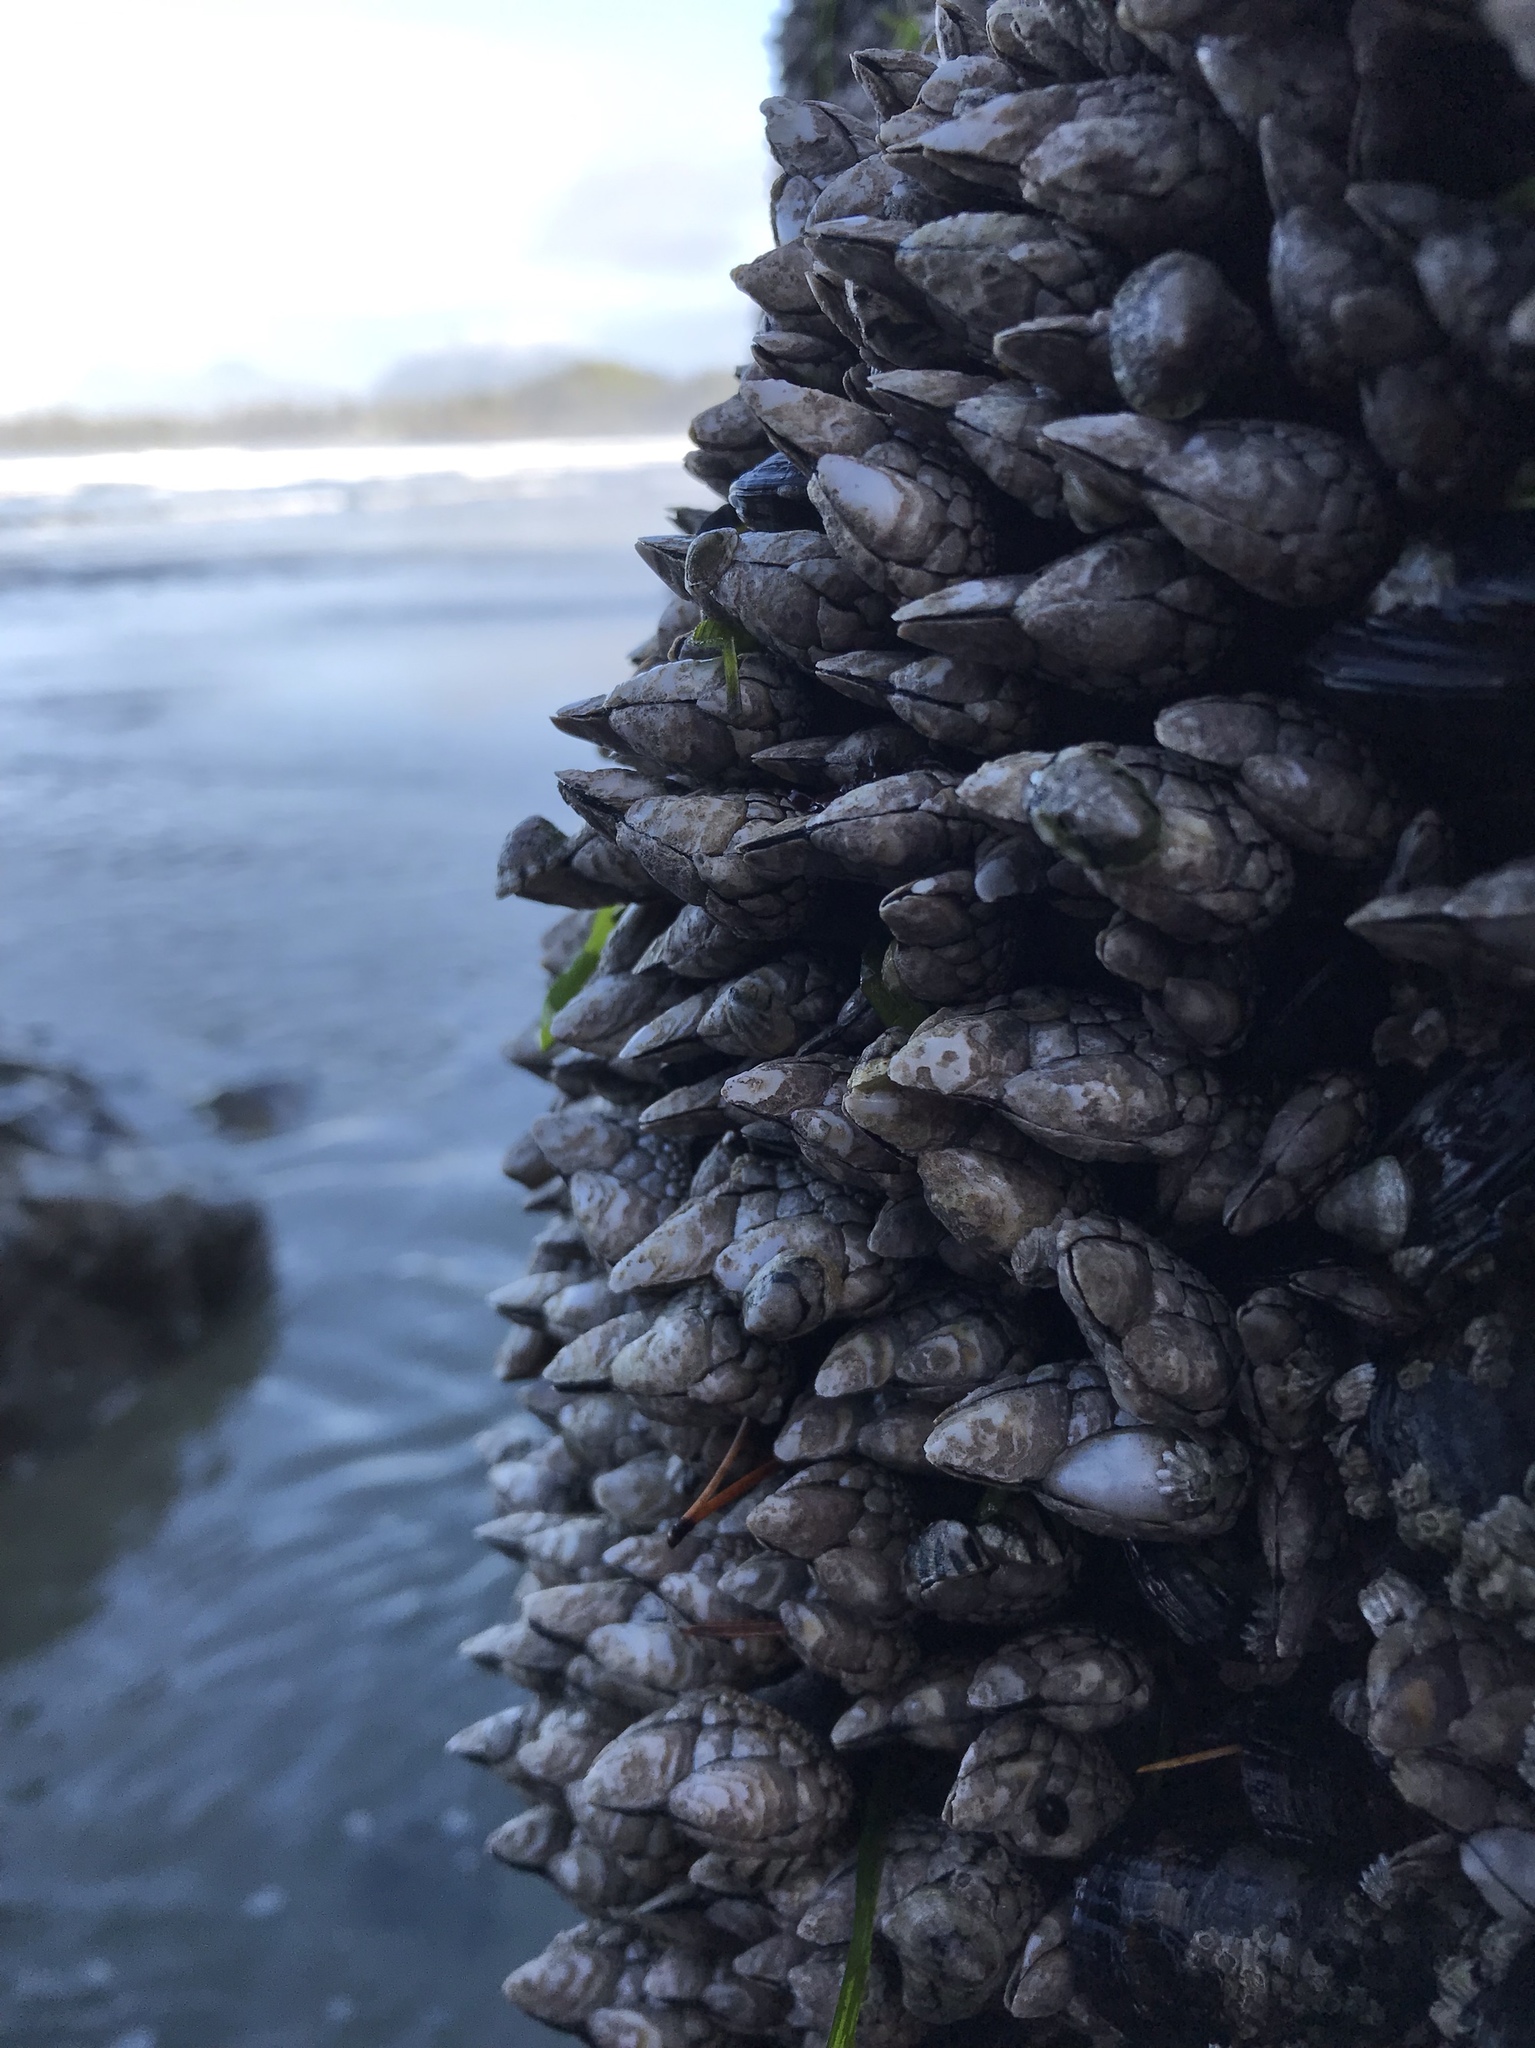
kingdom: Animalia
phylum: Arthropoda
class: Maxillopoda
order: Pedunculata
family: Pollicipedidae
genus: Pollicipes
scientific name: Pollicipes polymerus
